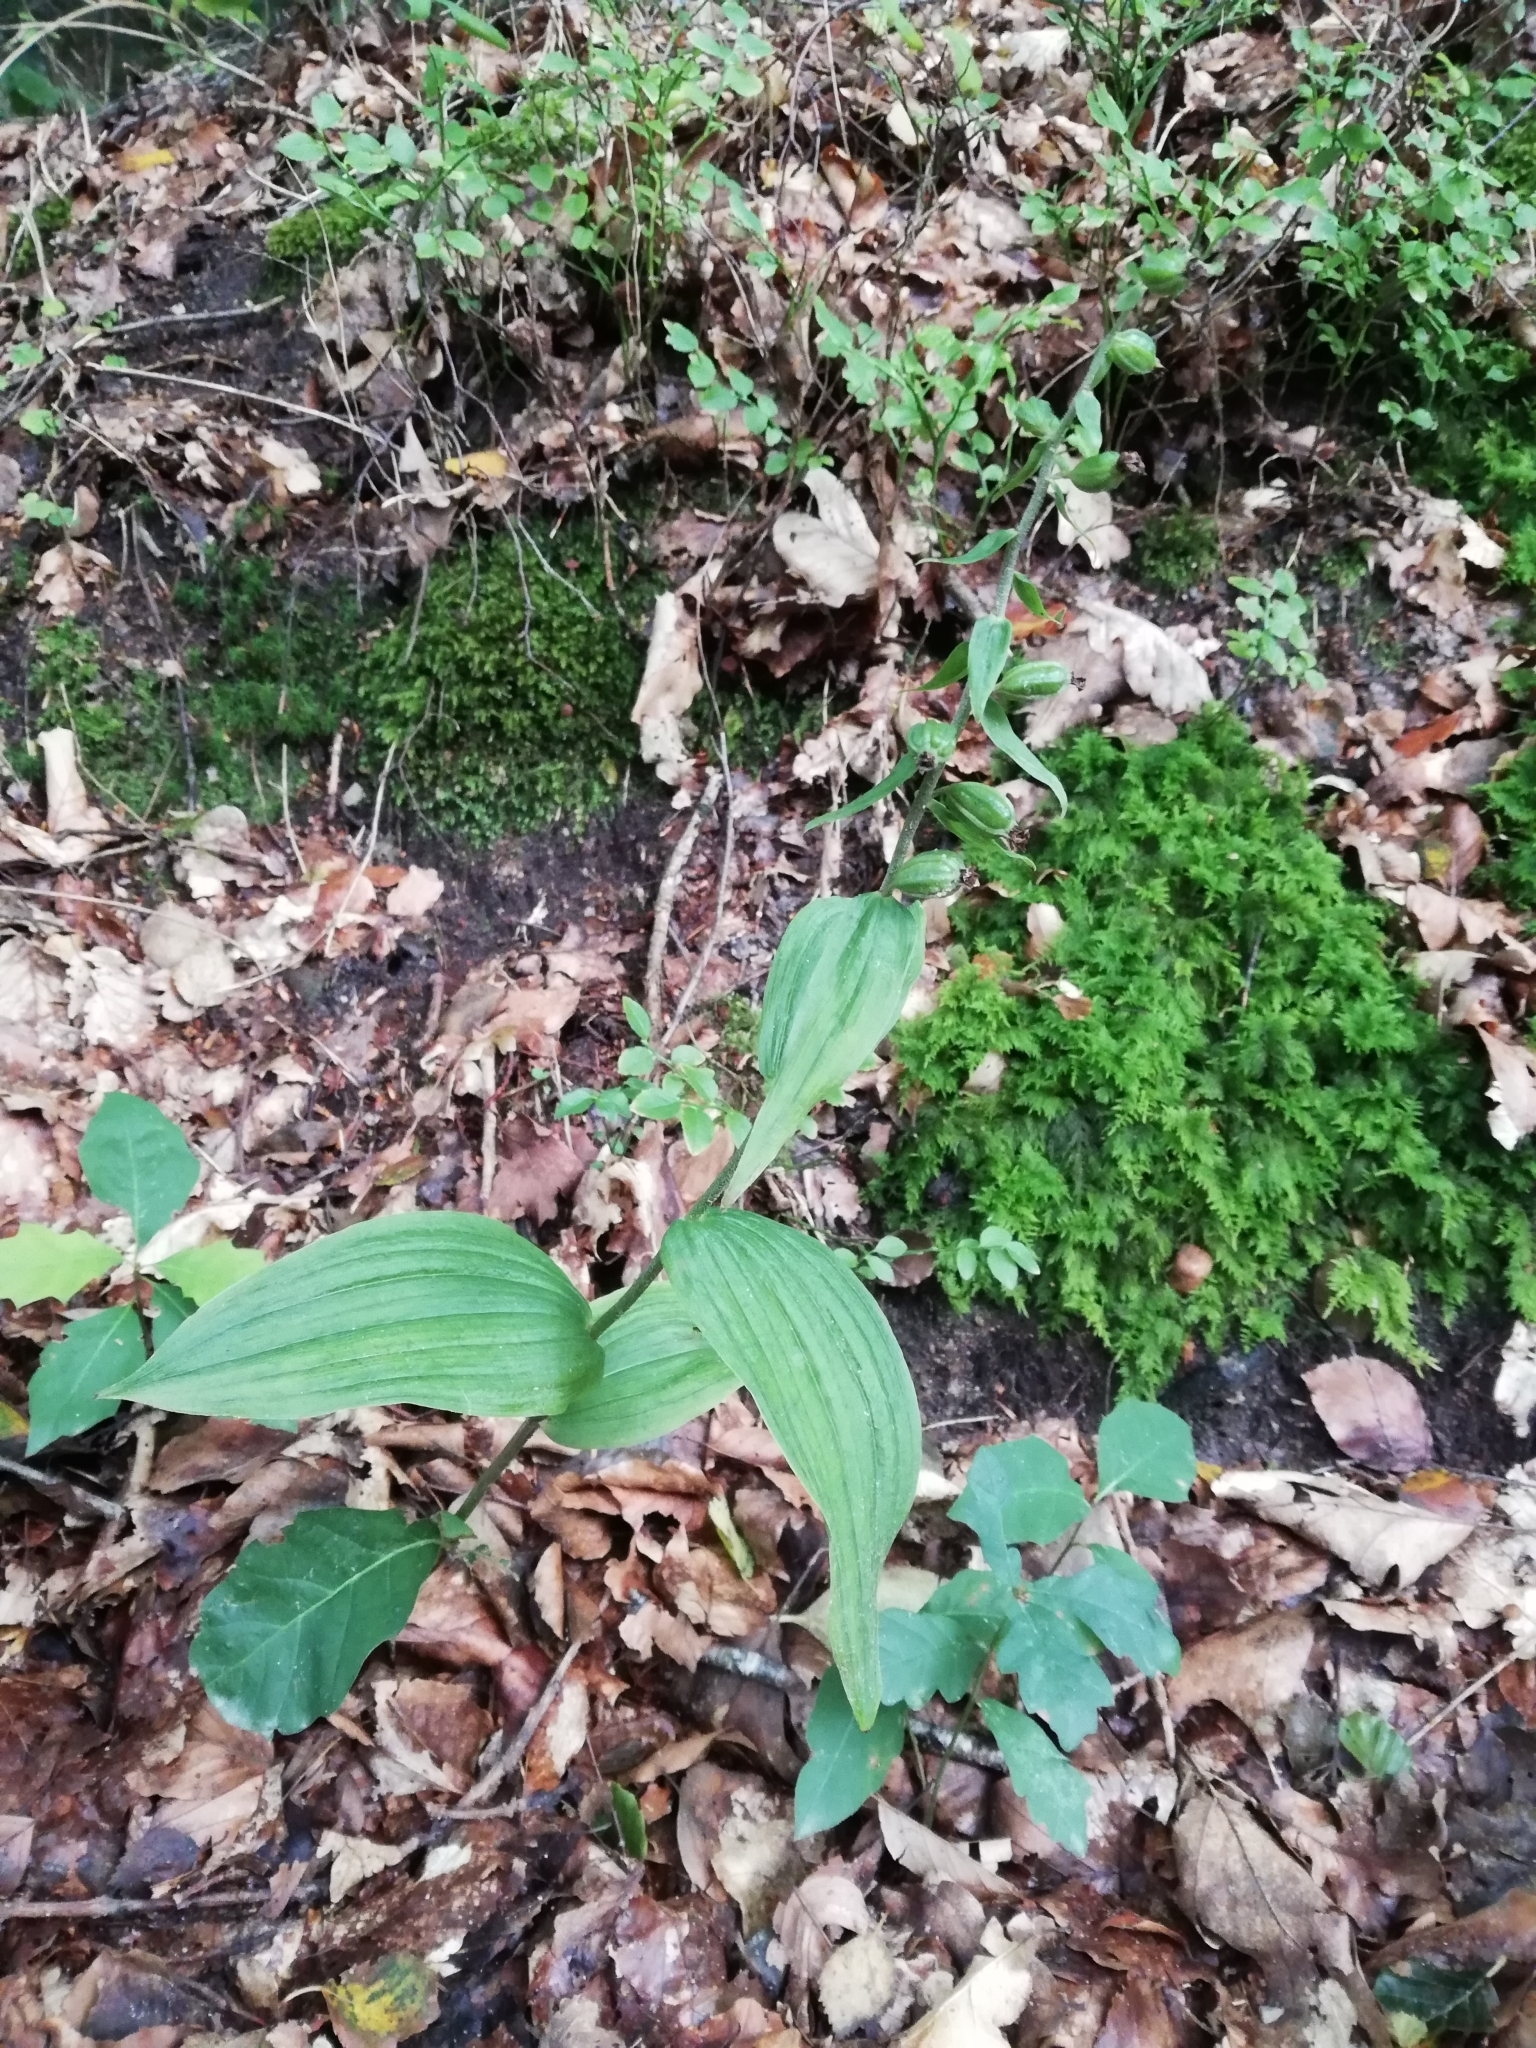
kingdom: Plantae
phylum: Tracheophyta
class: Liliopsida
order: Asparagales
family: Orchidaceae
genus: Epipactis
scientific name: Epipactis helleborine
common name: Broad-leaved helleborine
